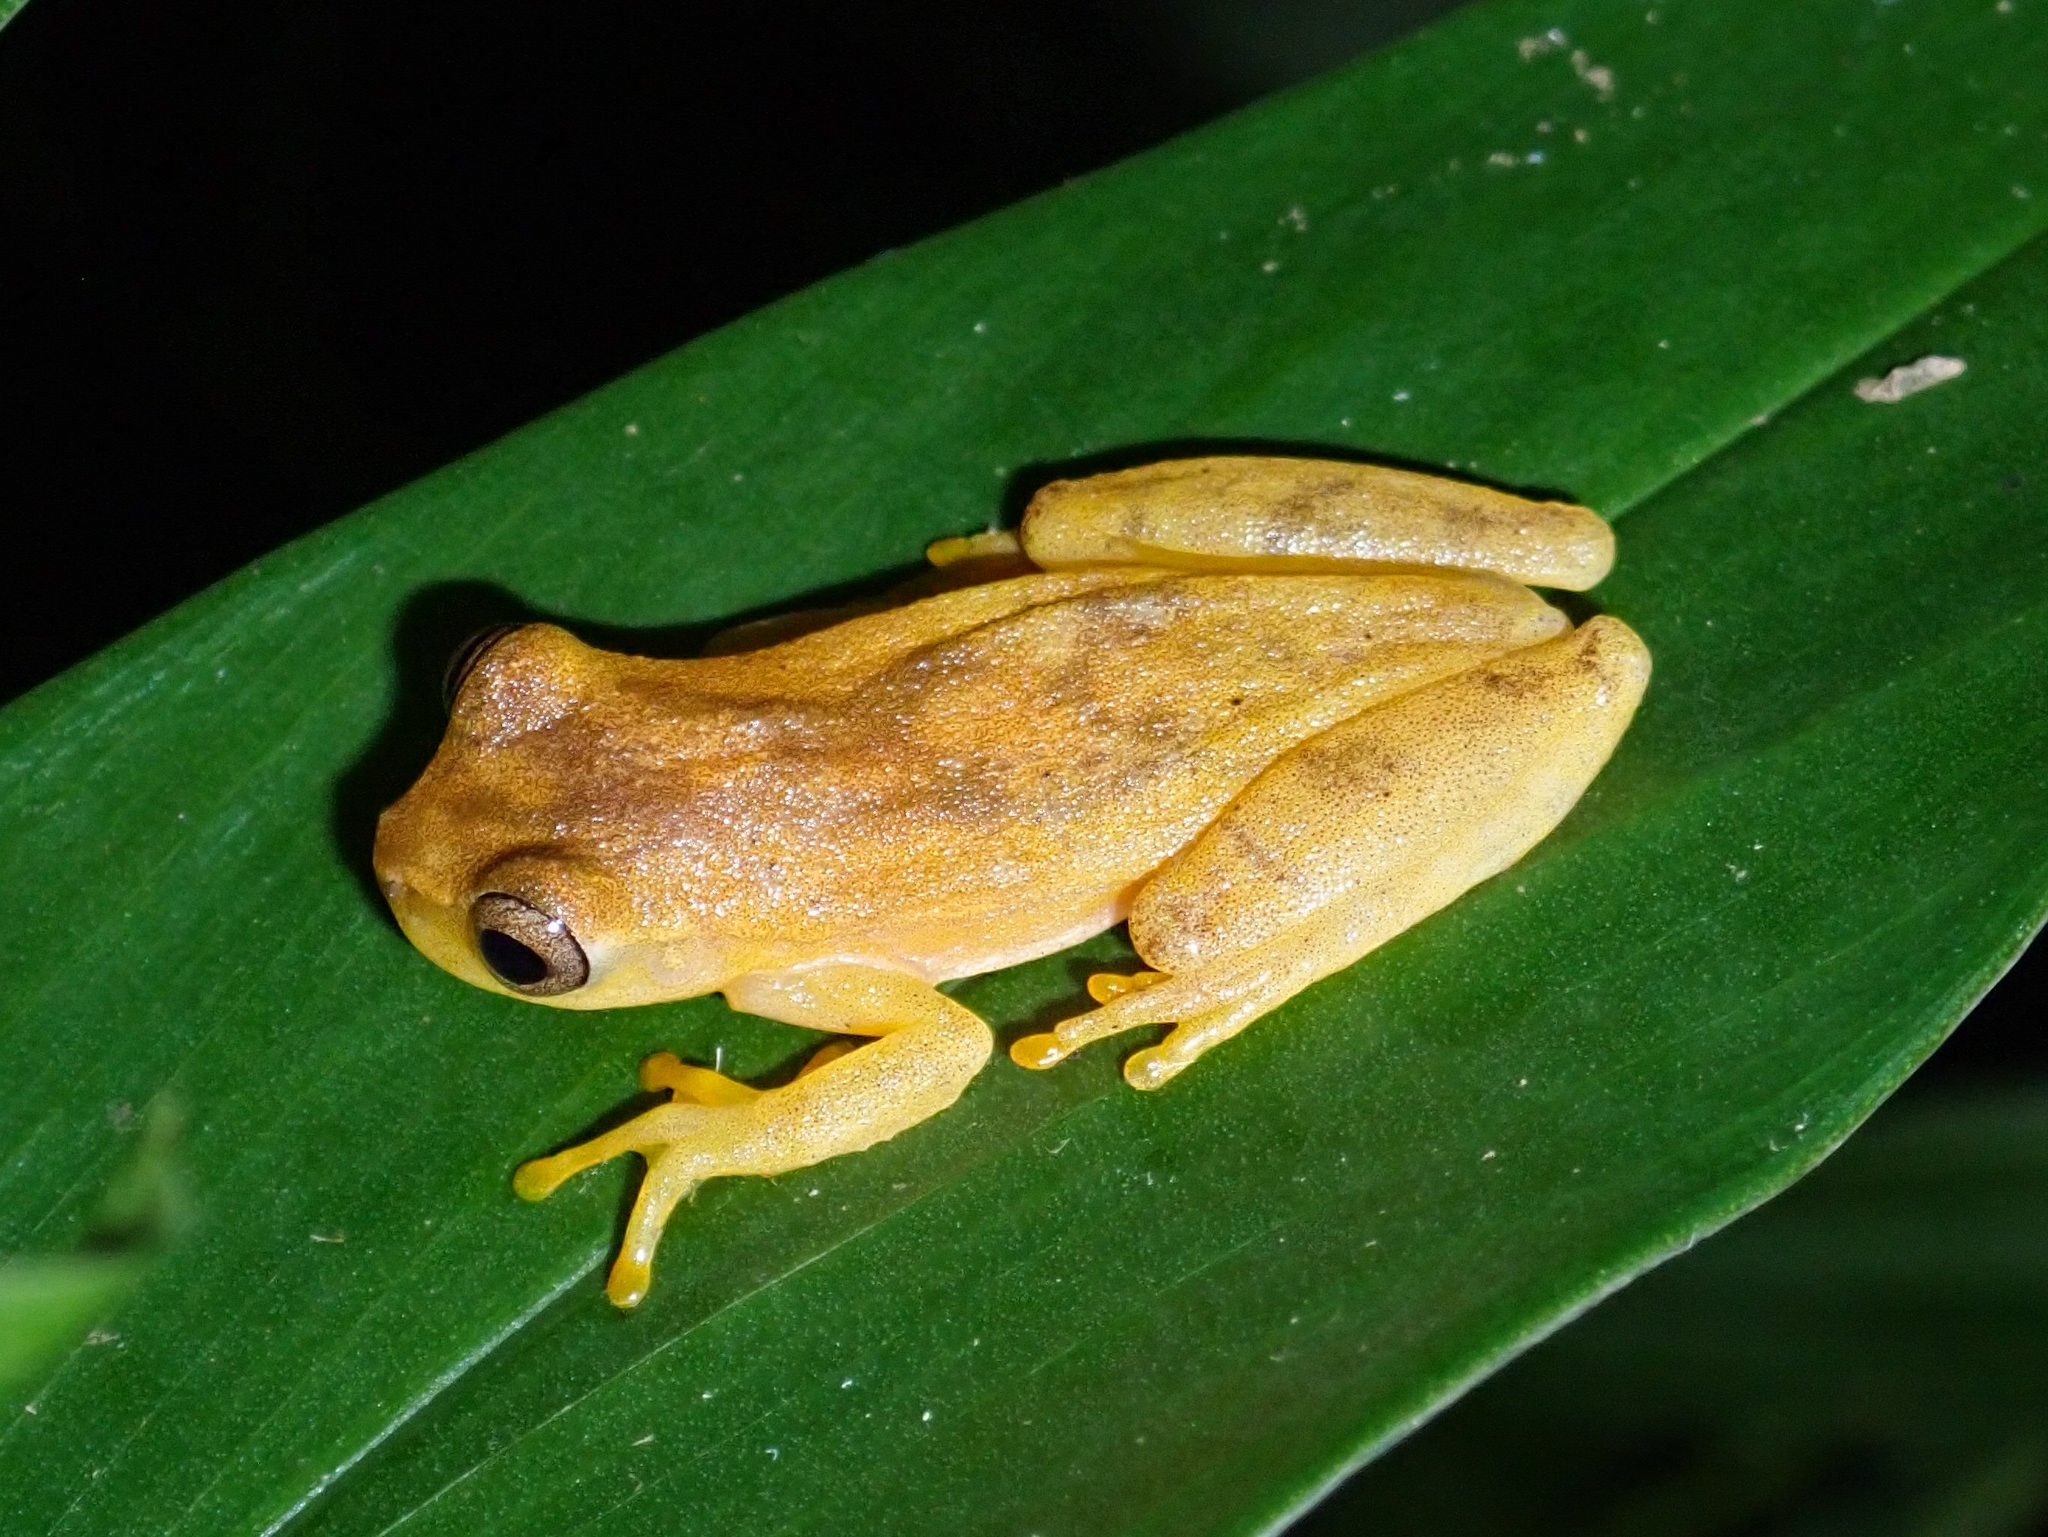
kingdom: Animalia
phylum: Chordata
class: Amphibia
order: Anura
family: Hylidae
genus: Dendropsophus
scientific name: Dendropsophus microcephalus
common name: Small-headed treefrog
